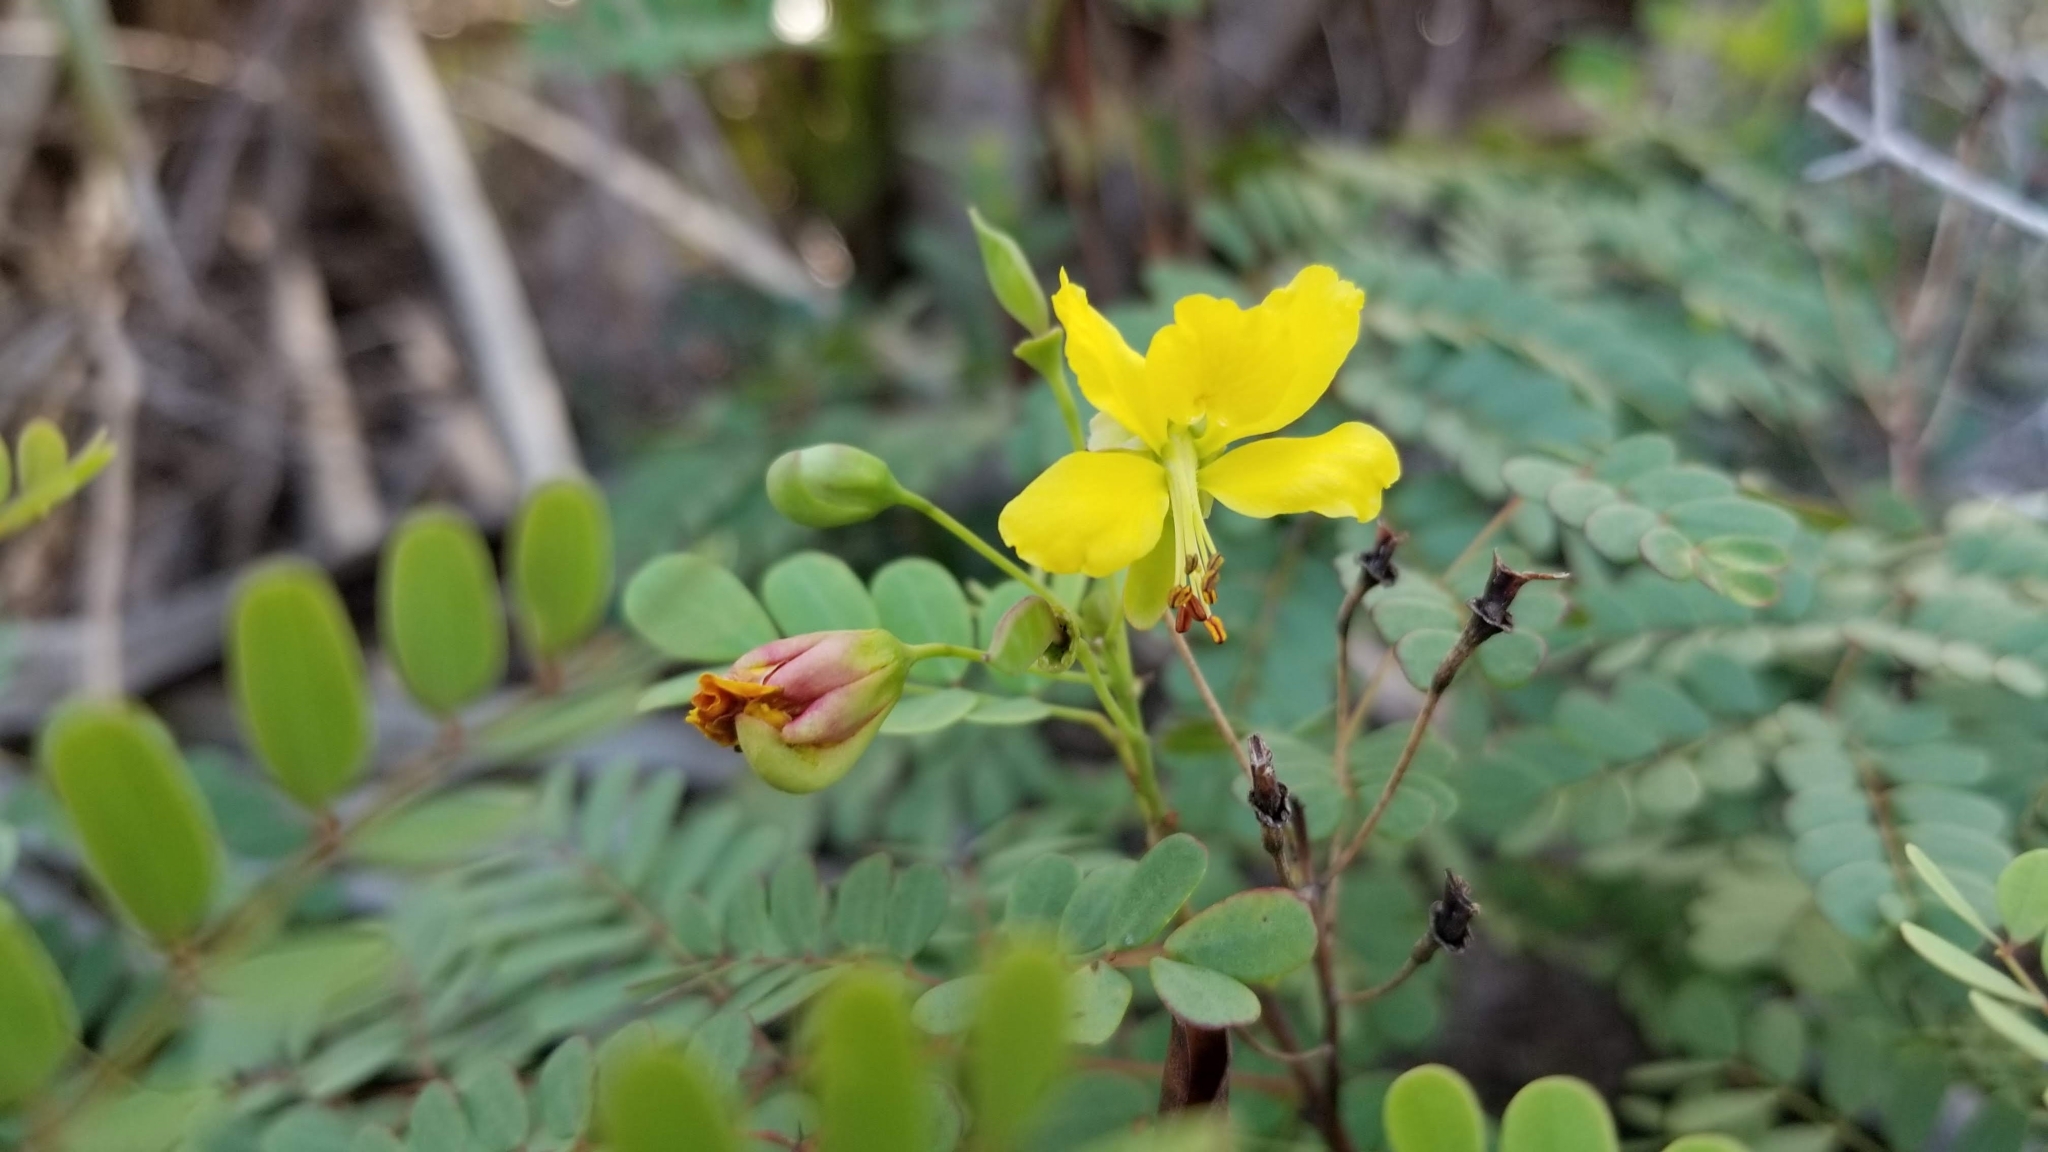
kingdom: Plantae
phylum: Tracheophyta
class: Magnoliopsida
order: Fabales
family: Fabaceae
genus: Denisophytum
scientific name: Denisophytum pauciflorum
